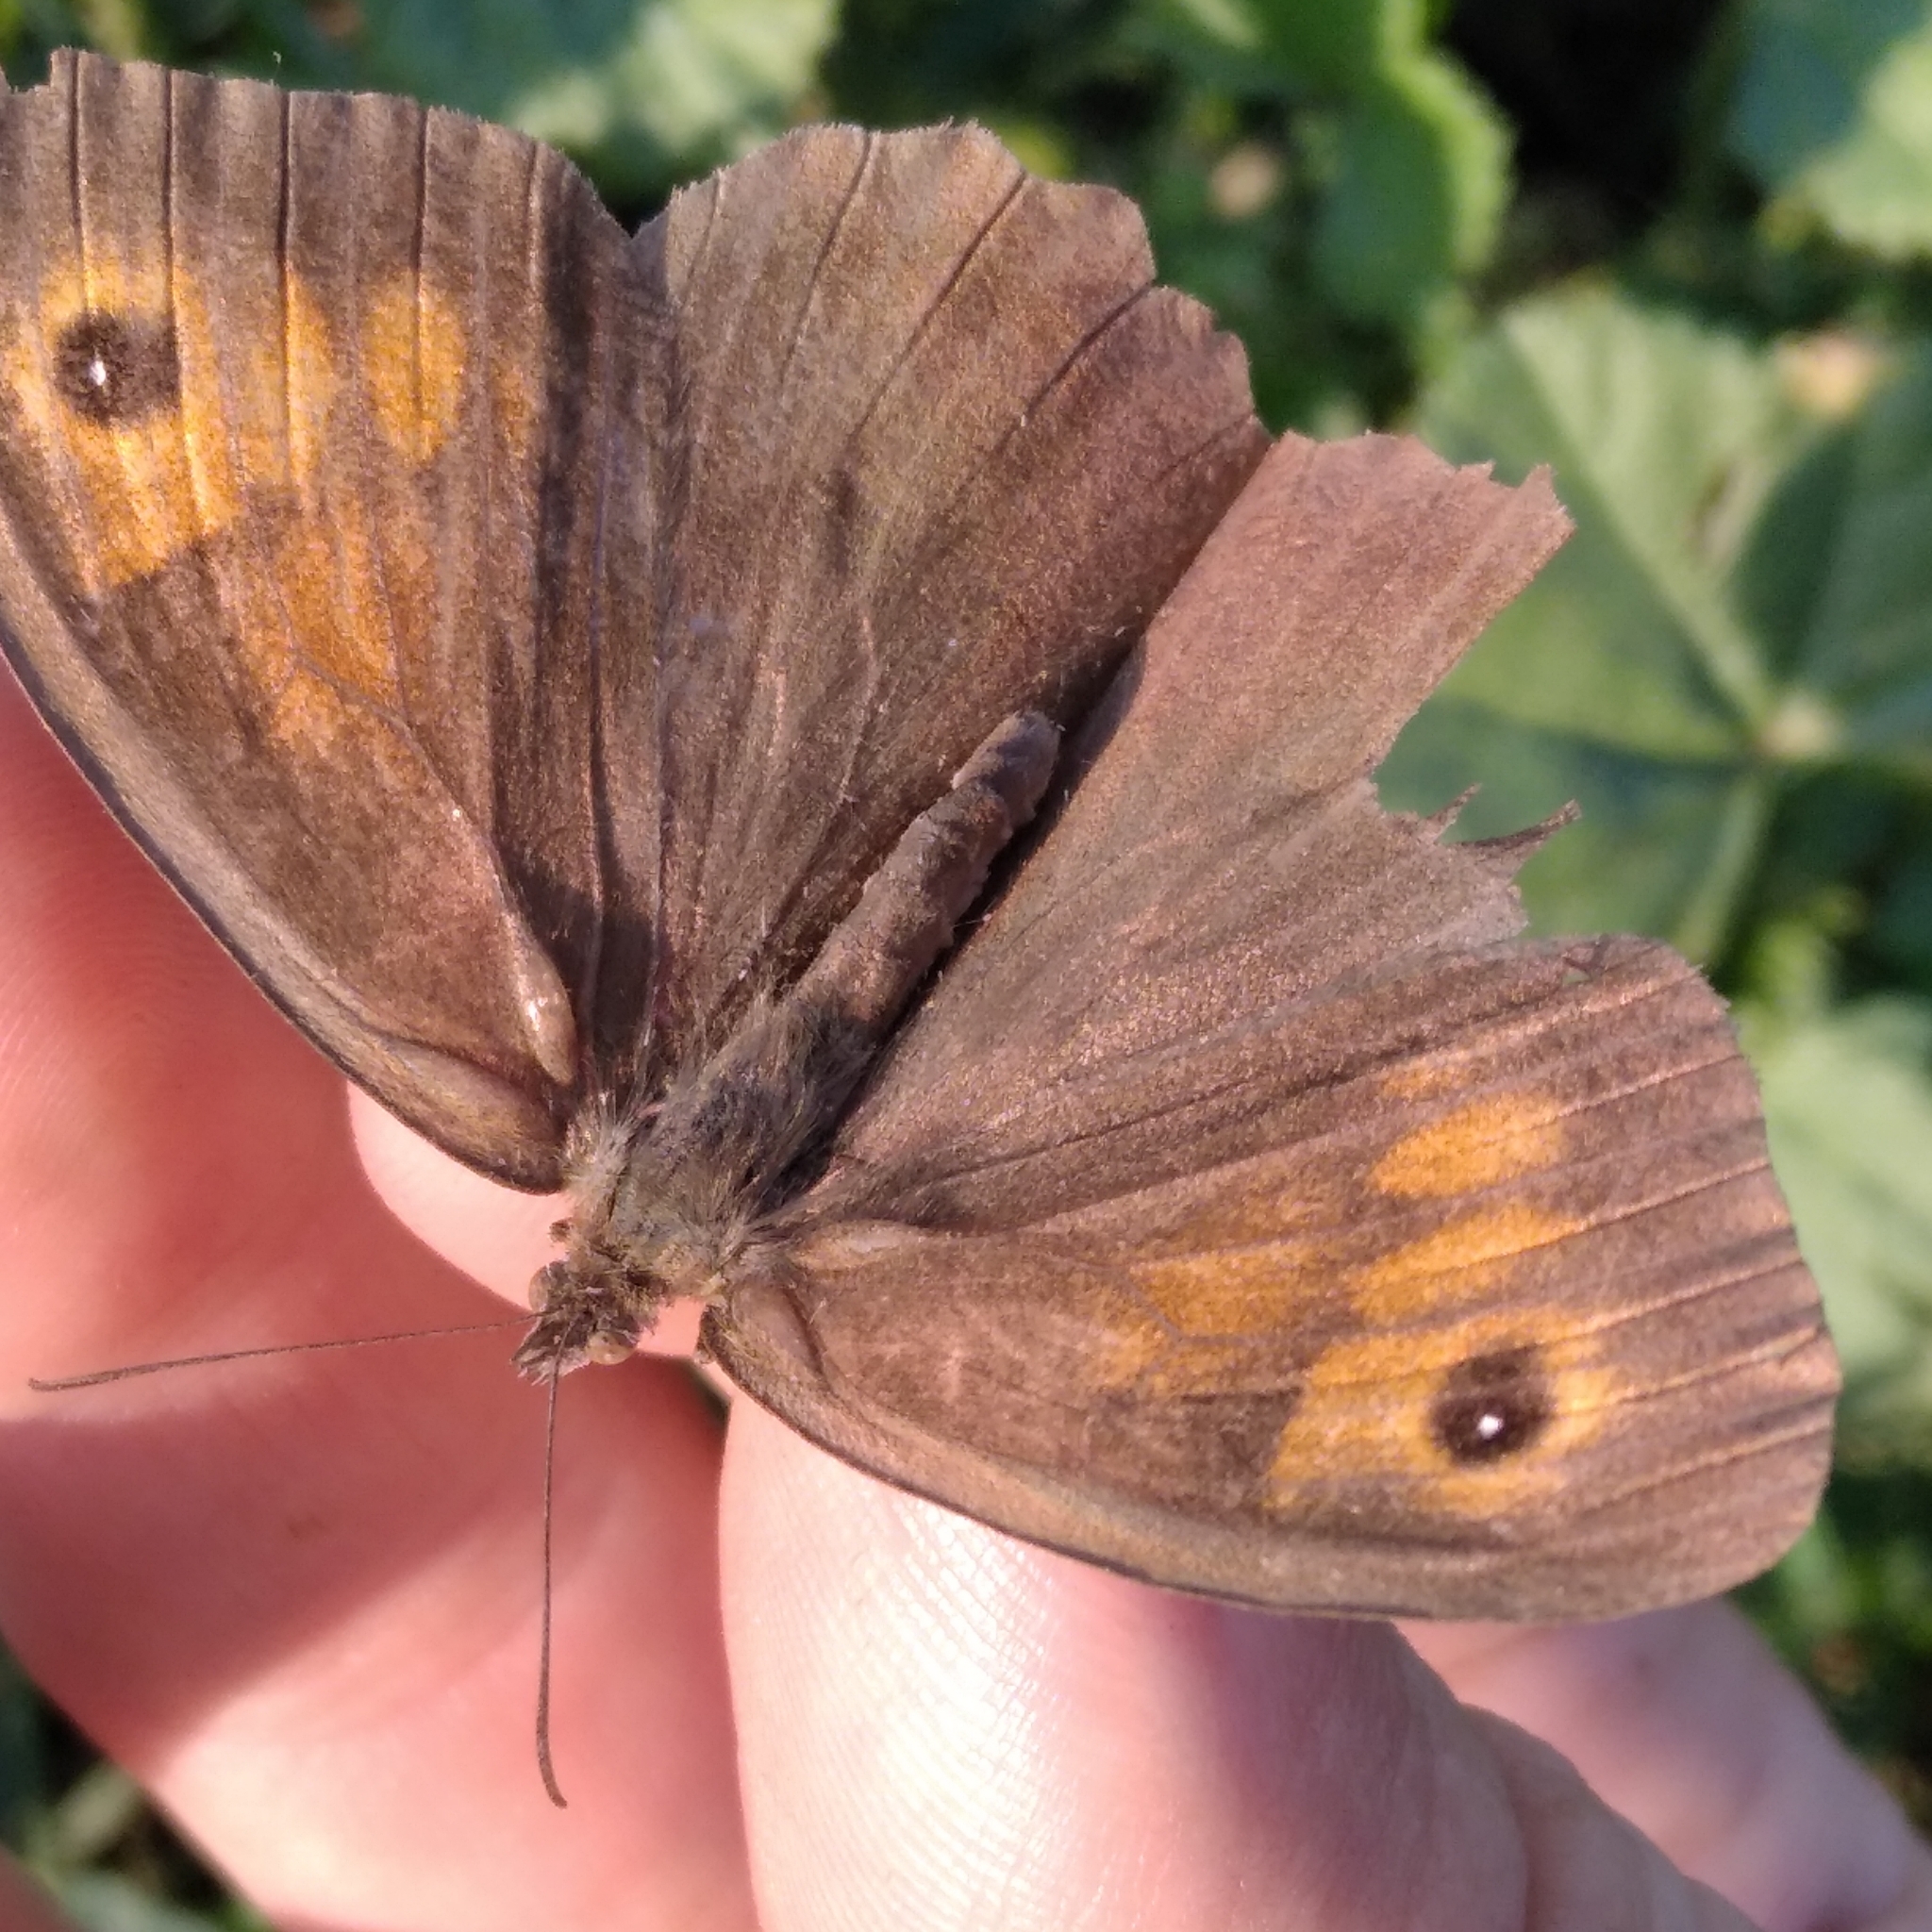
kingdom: Animalia
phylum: Arthropoda
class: Insecta
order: Lepidoptera
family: Nymphalidae
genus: Maniola
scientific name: Maniola jurtina
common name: Meadow brown
